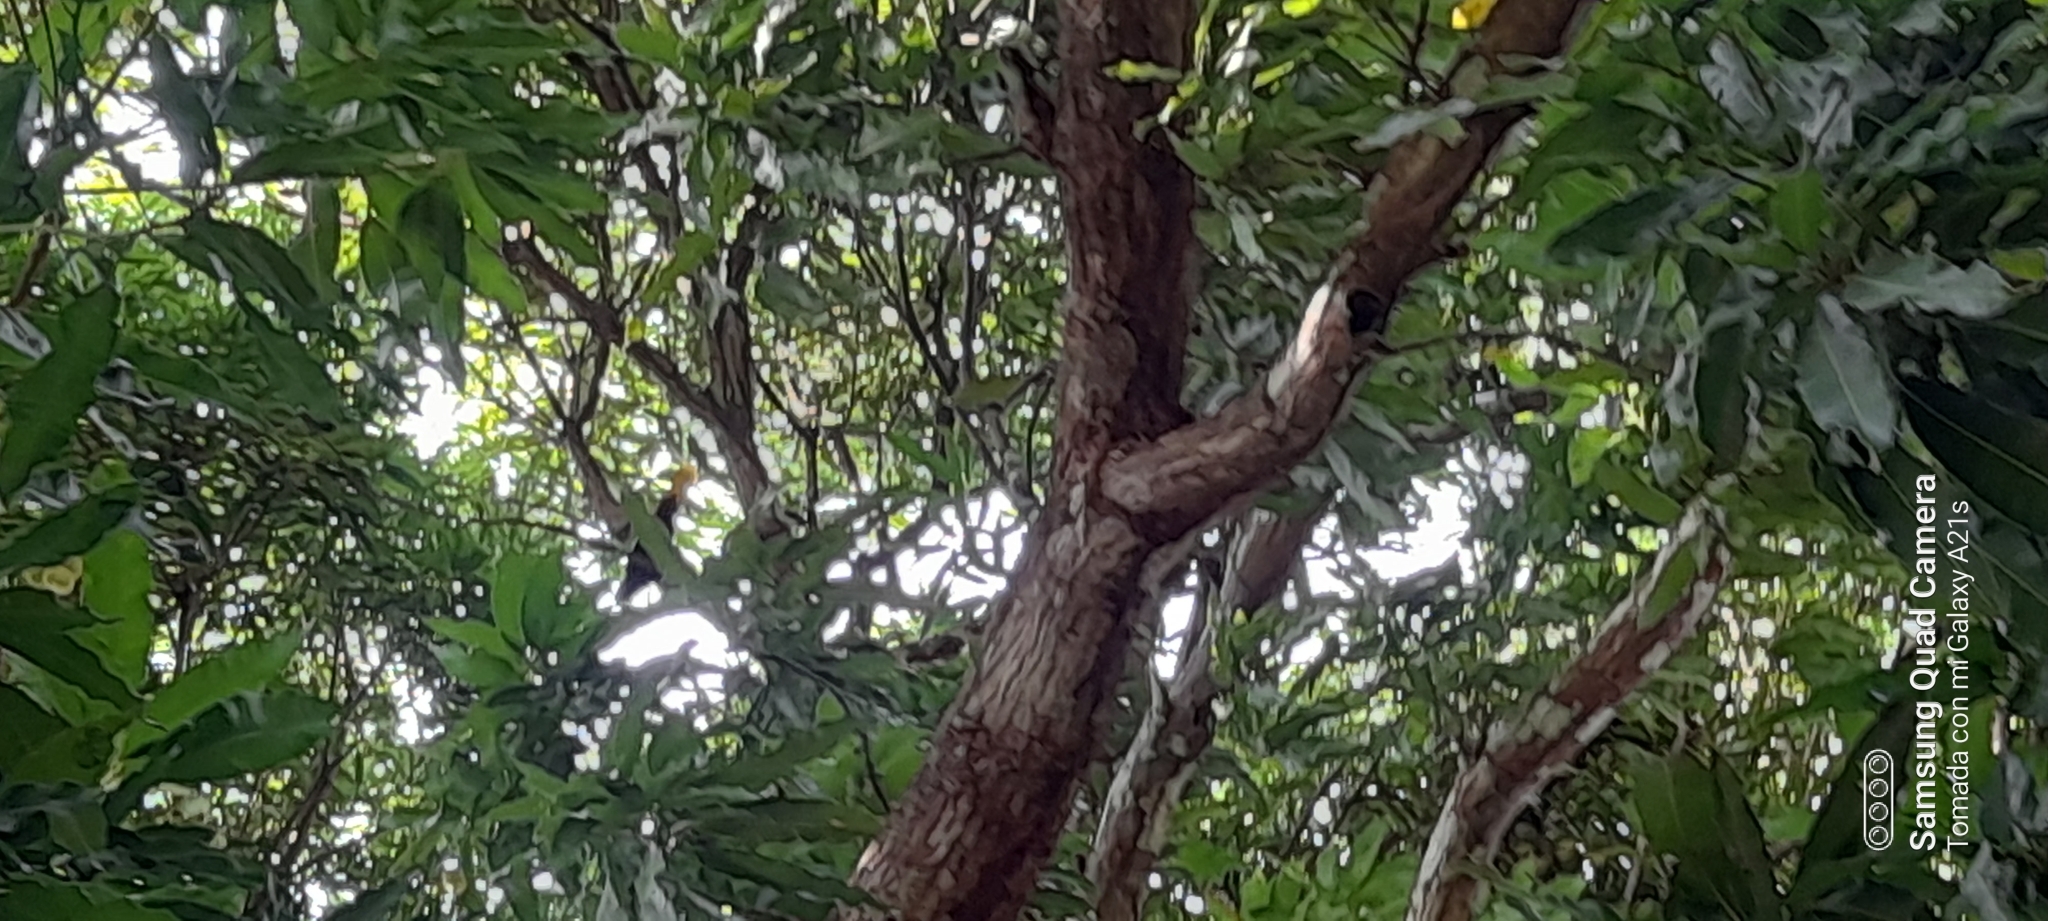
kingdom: Animalia
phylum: Chordata
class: Aves
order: Passeriformes
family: Icteridae
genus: Psarocolius
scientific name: Psarocolius decumanus
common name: Crested oropendola
